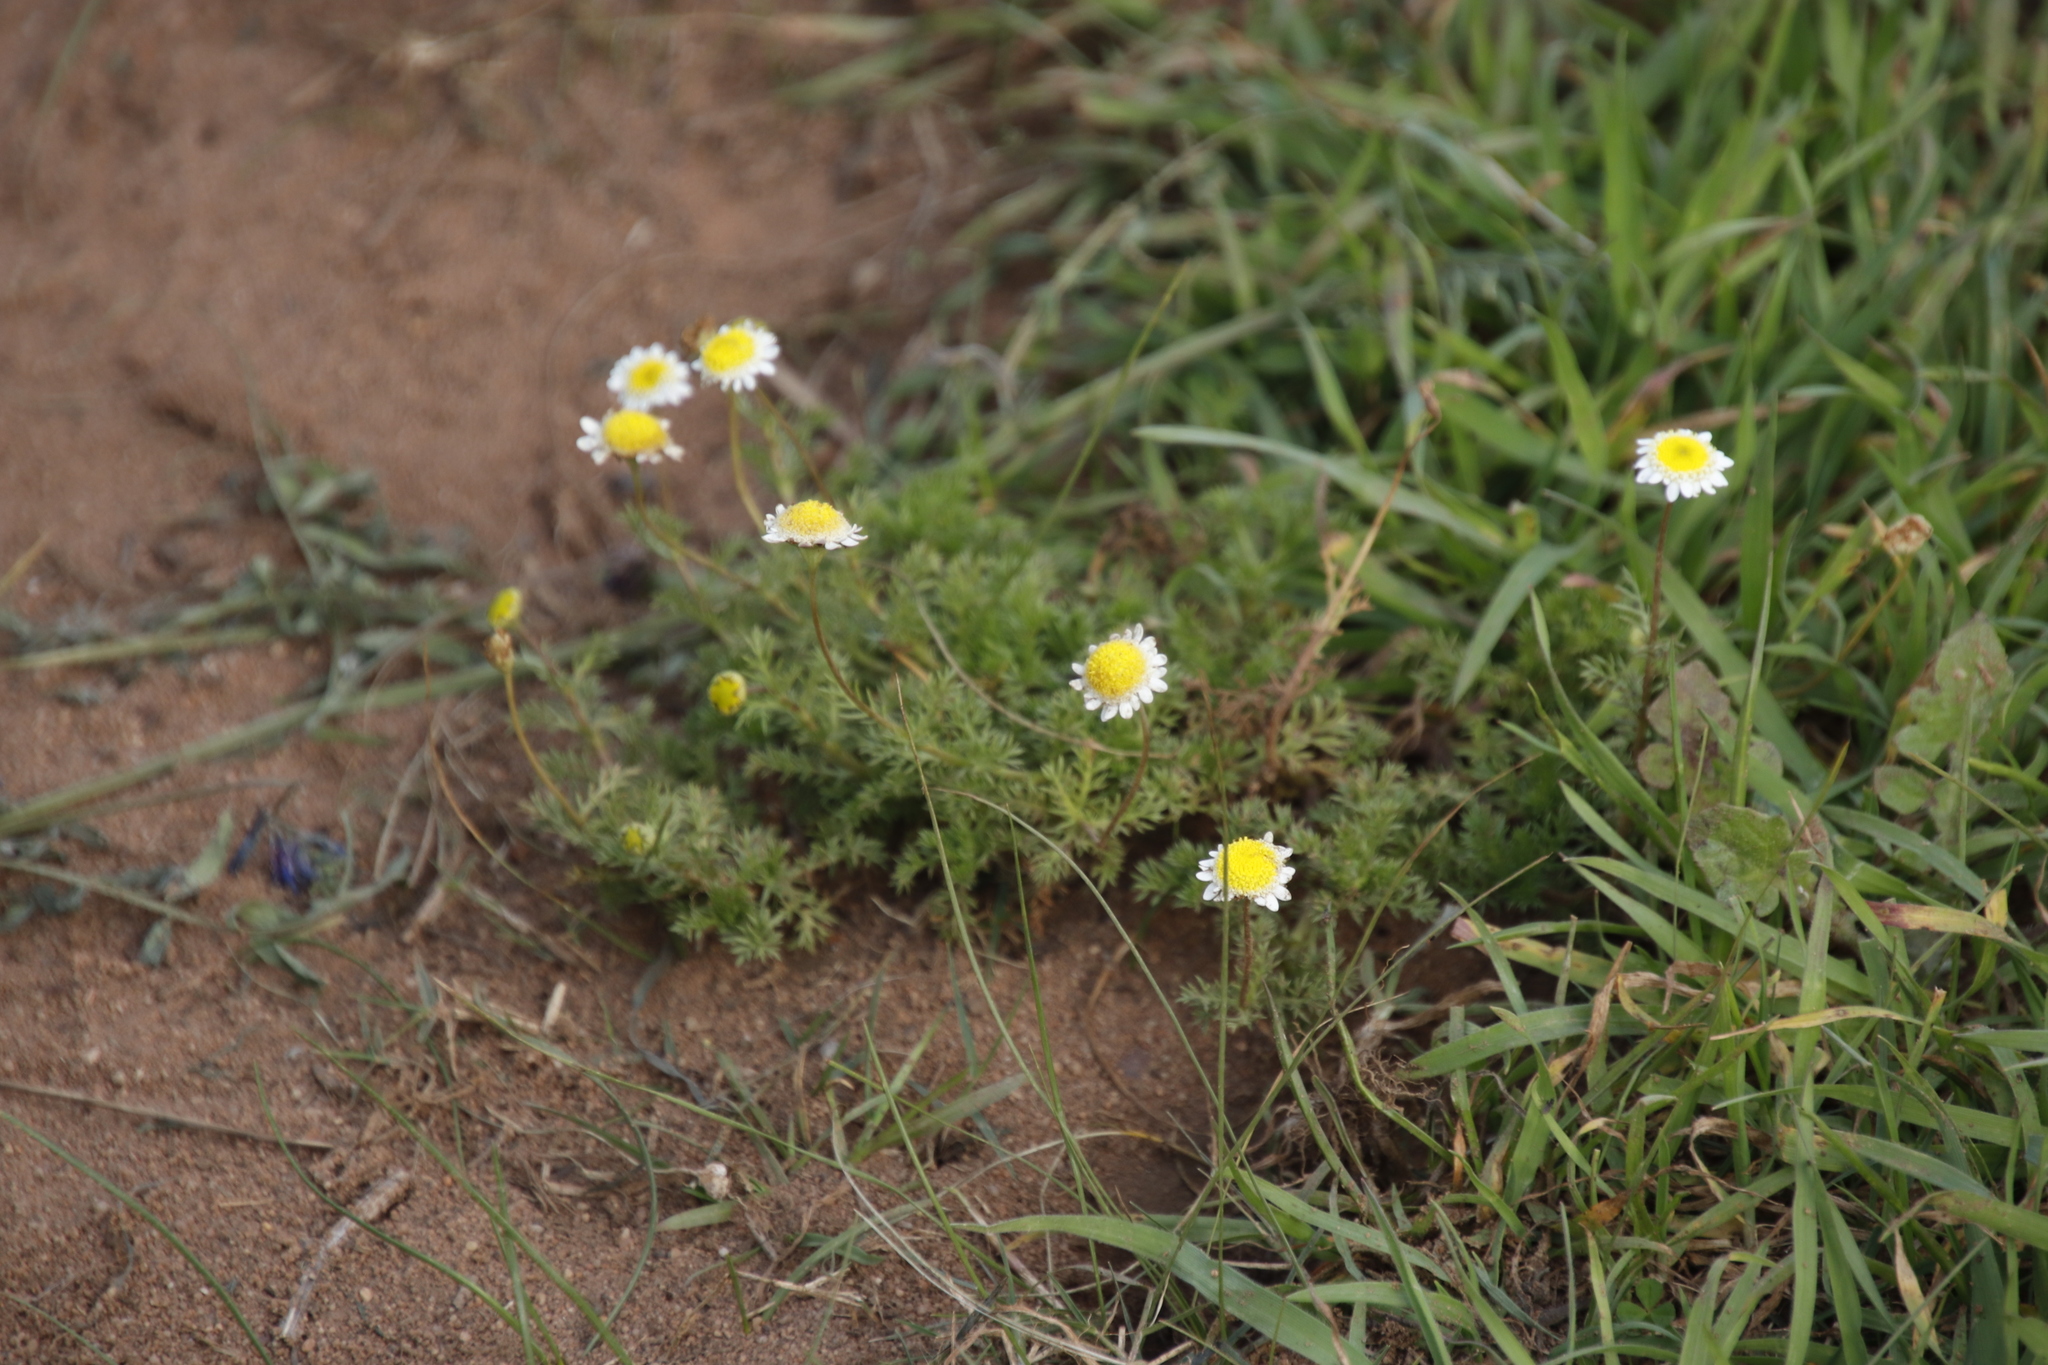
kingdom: Plantae
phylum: Tracheophyta
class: Magnoliopsida
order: Asterales
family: Asteraceae
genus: Cotula
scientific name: Cotula turbinata
